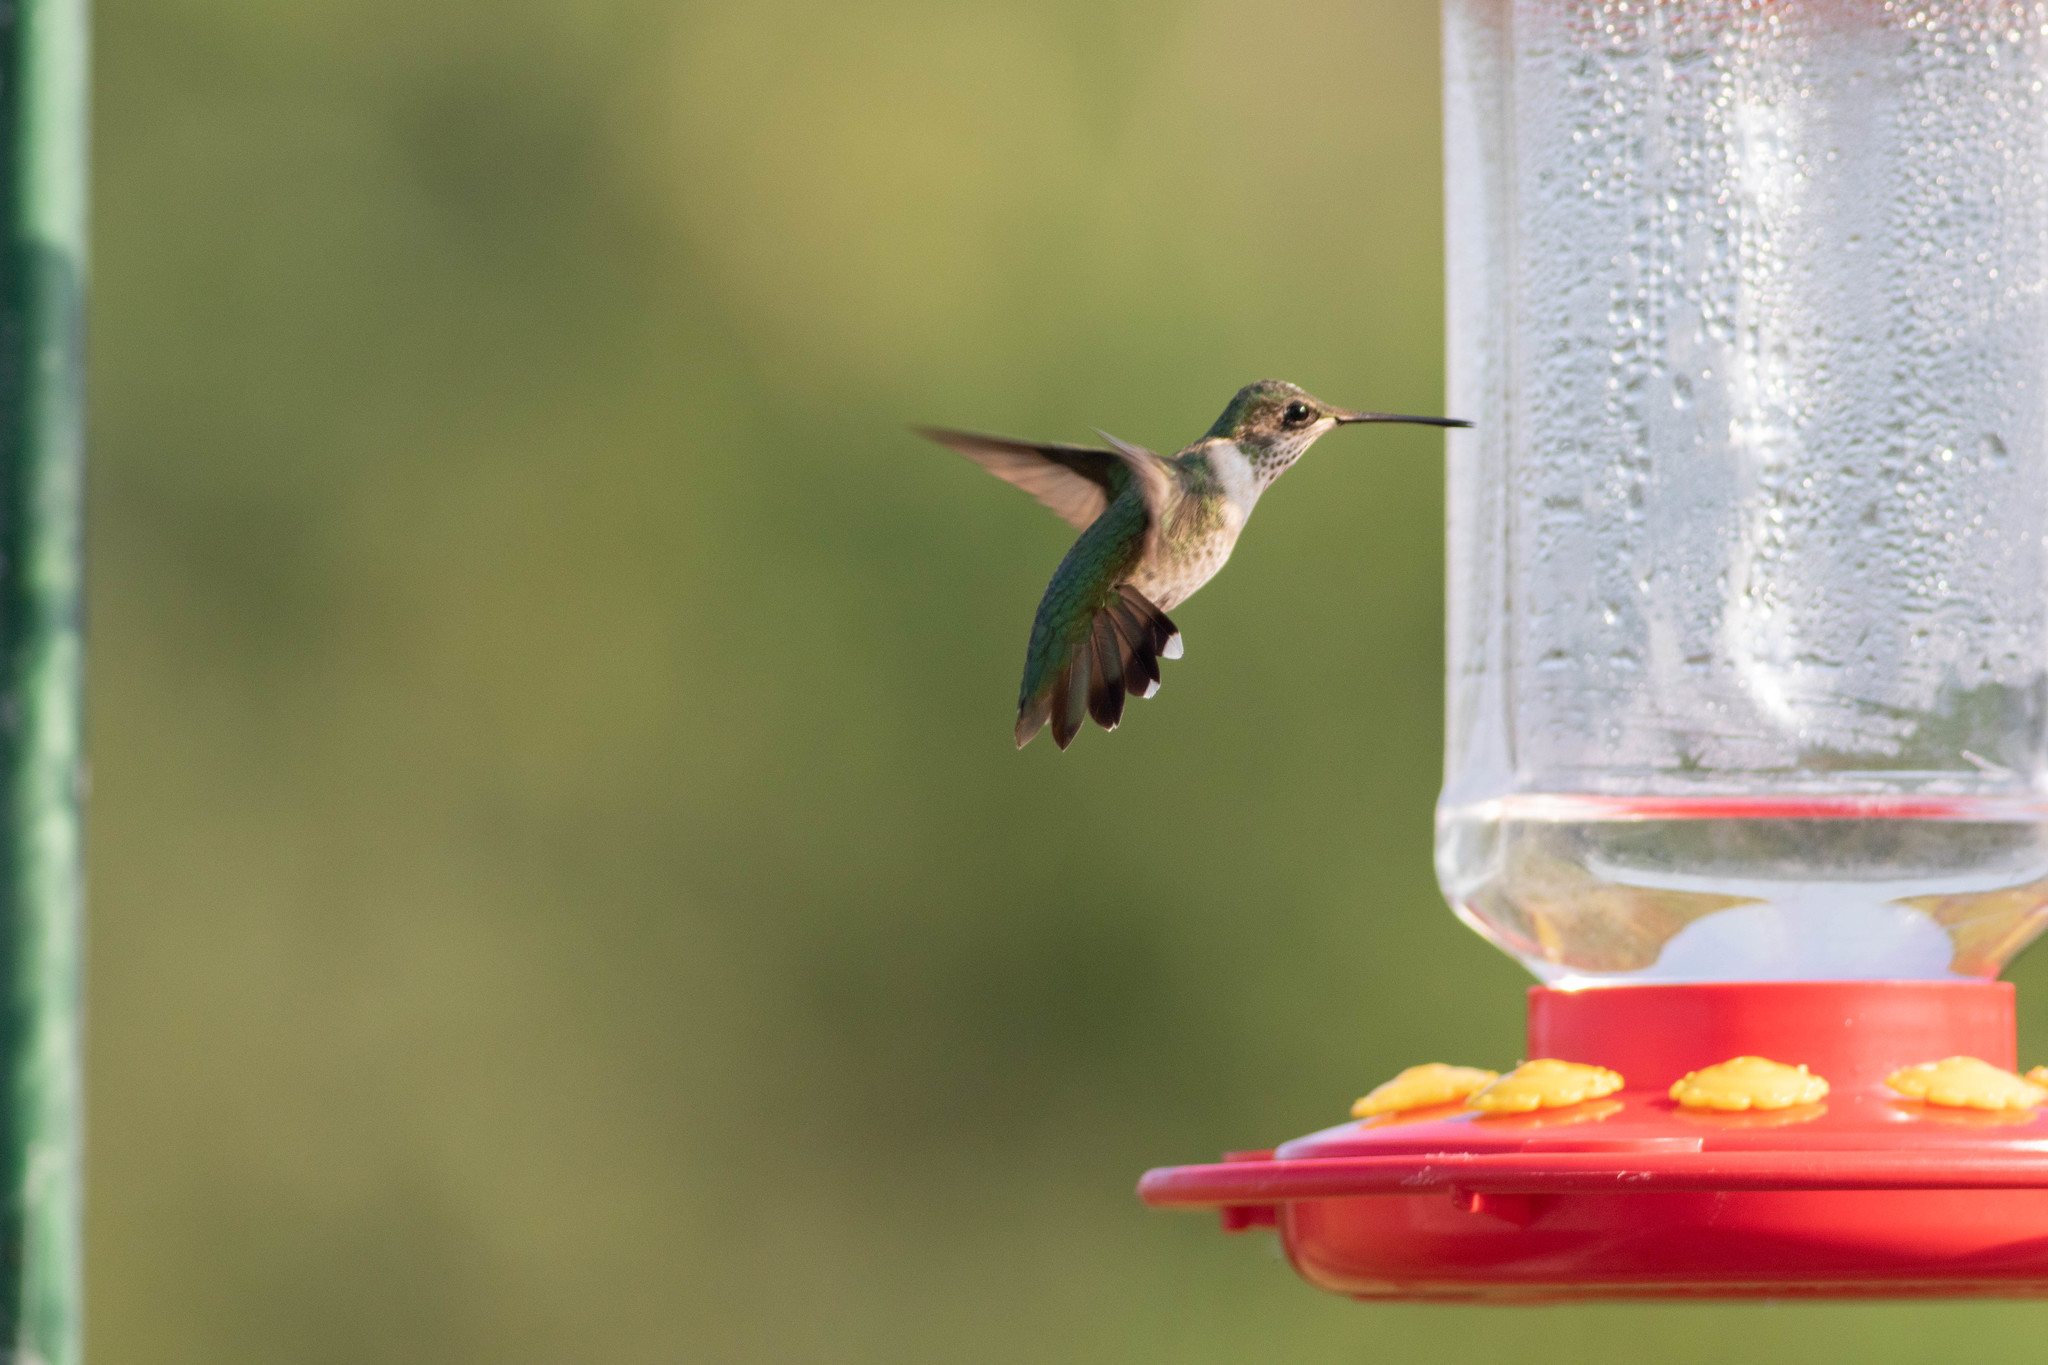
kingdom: Animalia
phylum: Chordata
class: Aves
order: Apodiformes
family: Trochilidae
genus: Archilochus
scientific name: Archilochus colubris
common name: Ruby-throated hummingbird
